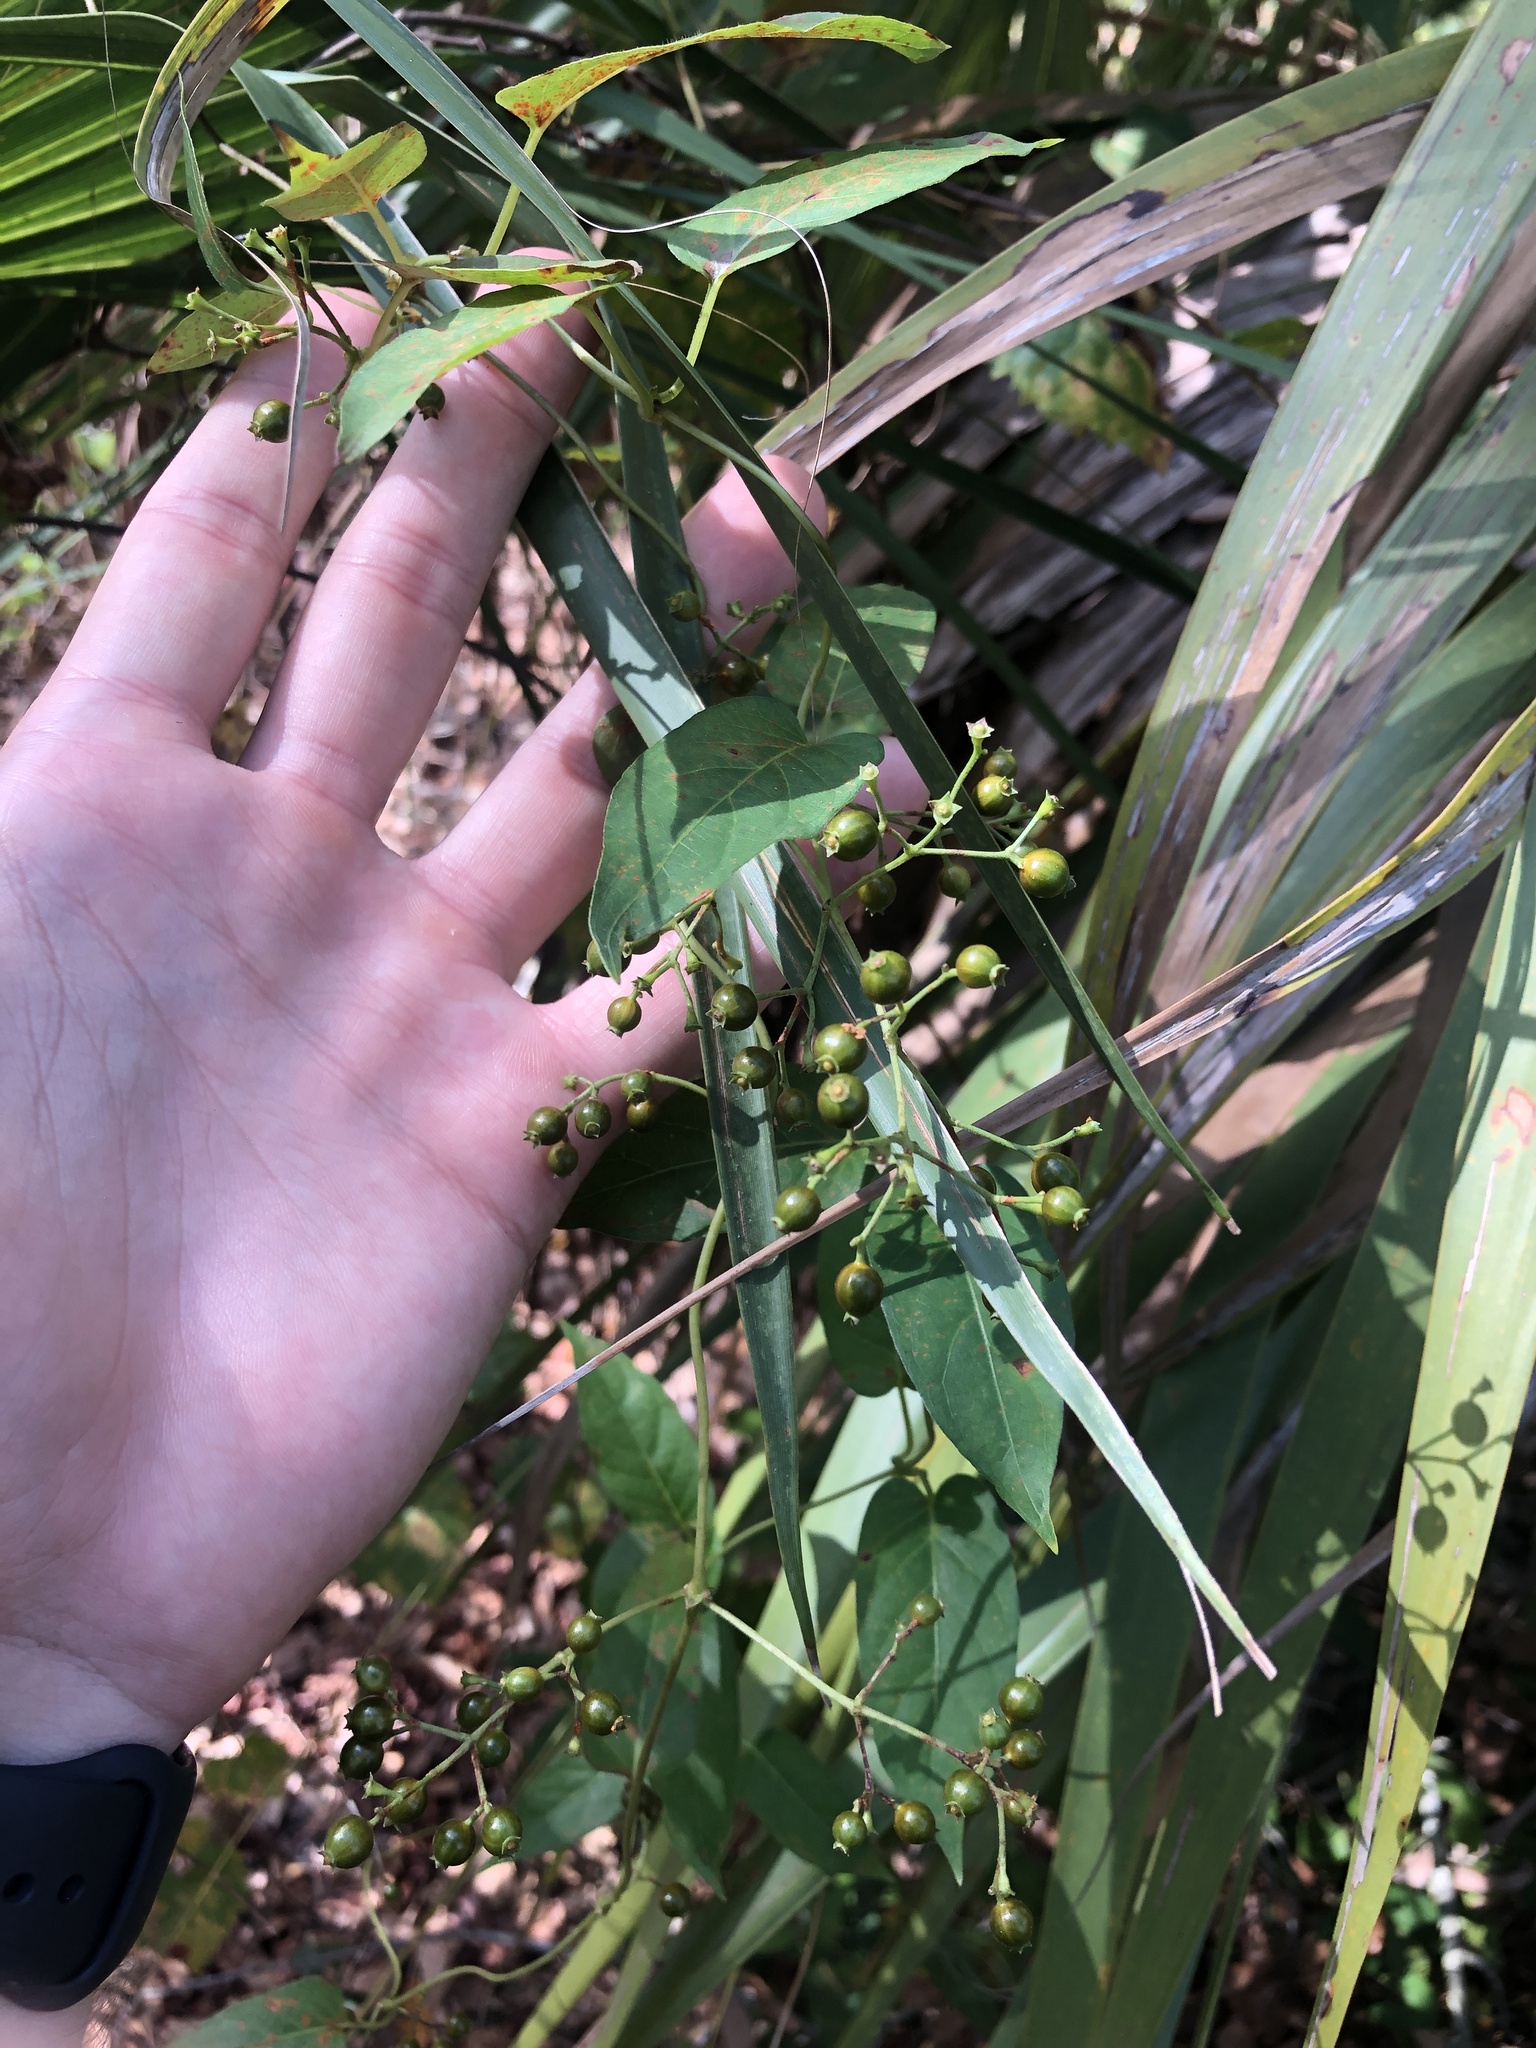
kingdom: Plantae
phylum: Tracheophyta
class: Magnoliopsida
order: Gentianales
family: Rubiaceae
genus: Paederia
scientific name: Paederia foetida
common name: Stinkvine
